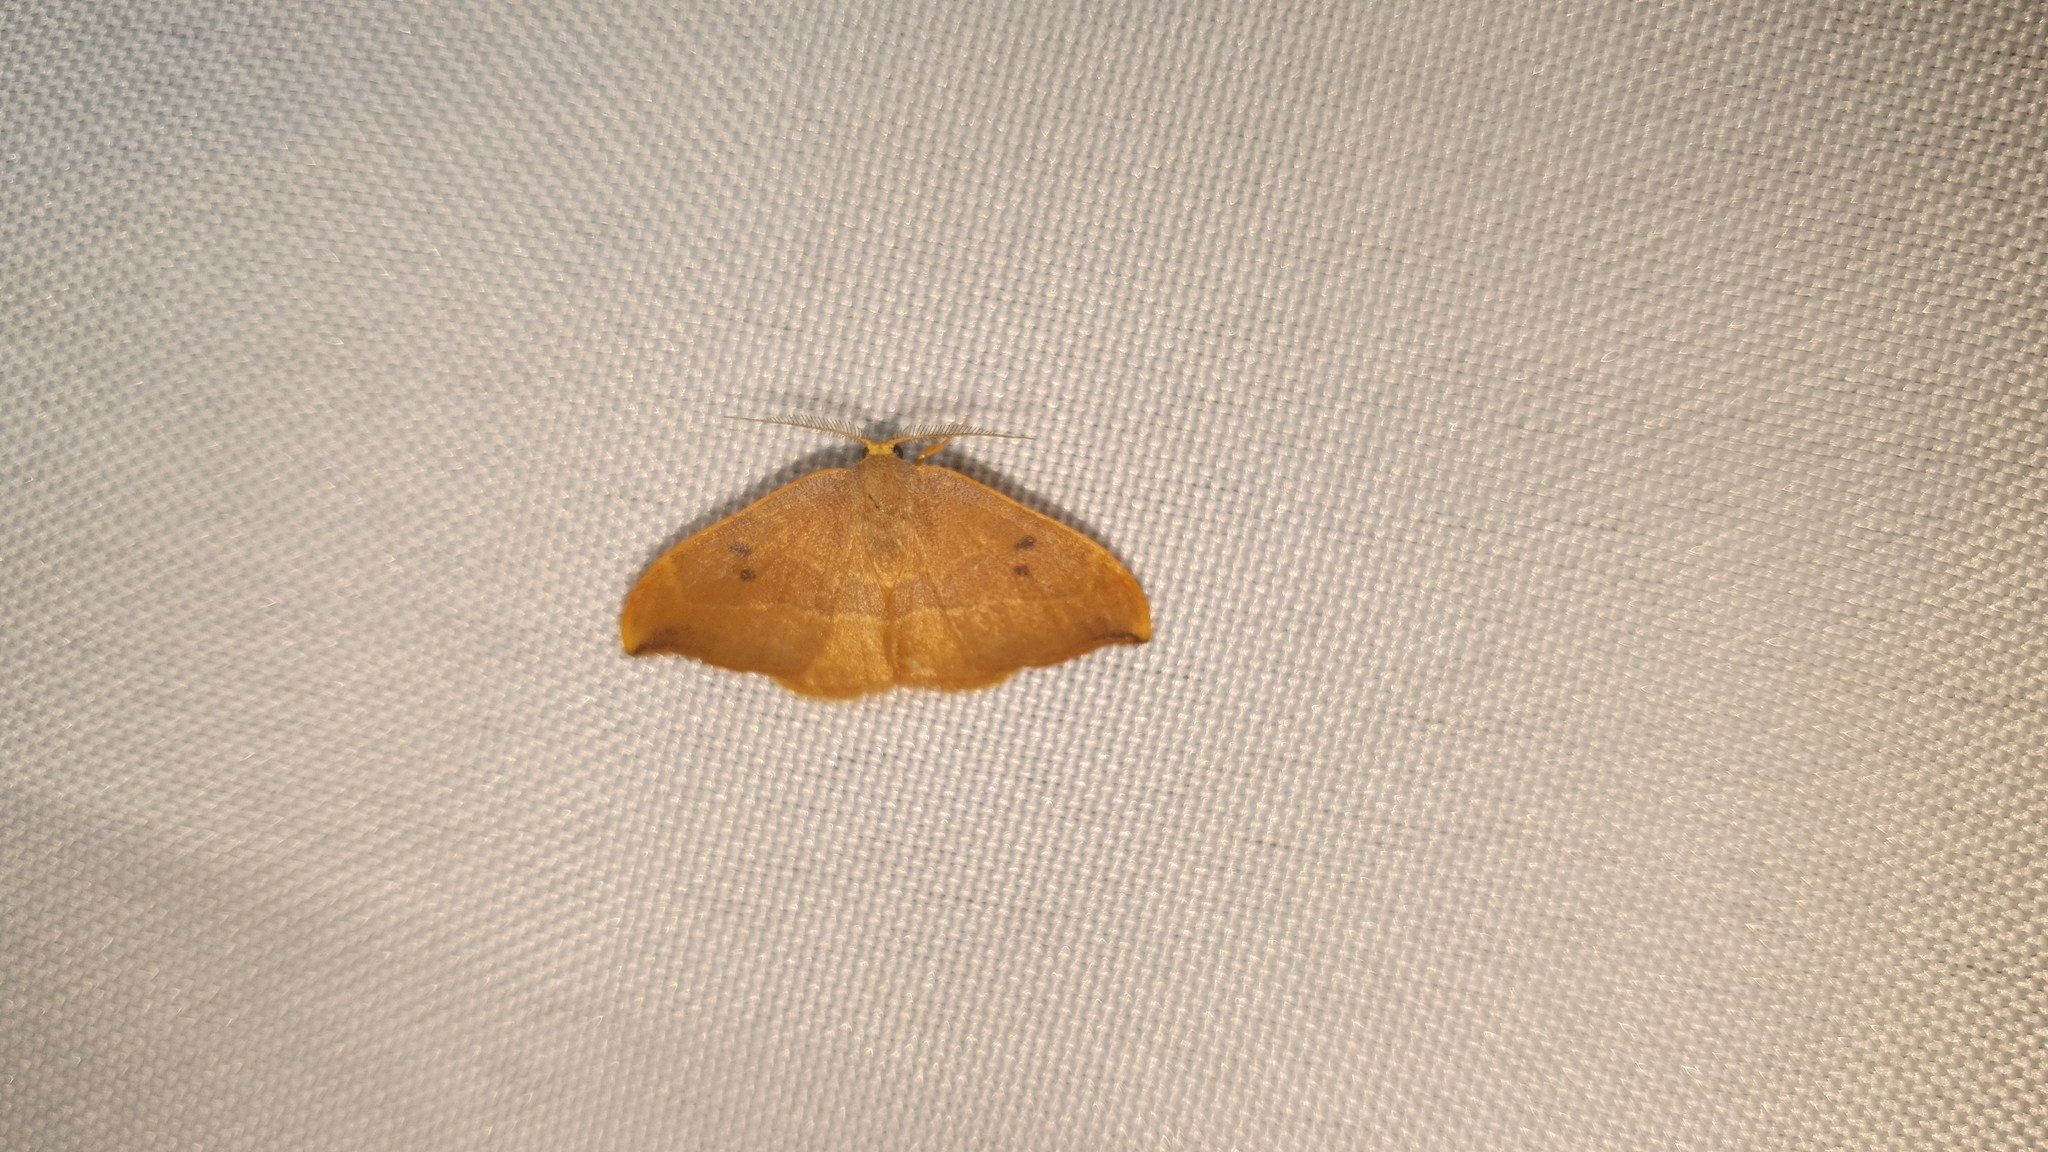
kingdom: Animalia
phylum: Arthropoda
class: Insecta
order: Lepidoptera
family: Drepanidae
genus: Watsonalla
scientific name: Watsonalla binaria
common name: Oak hook-tip
